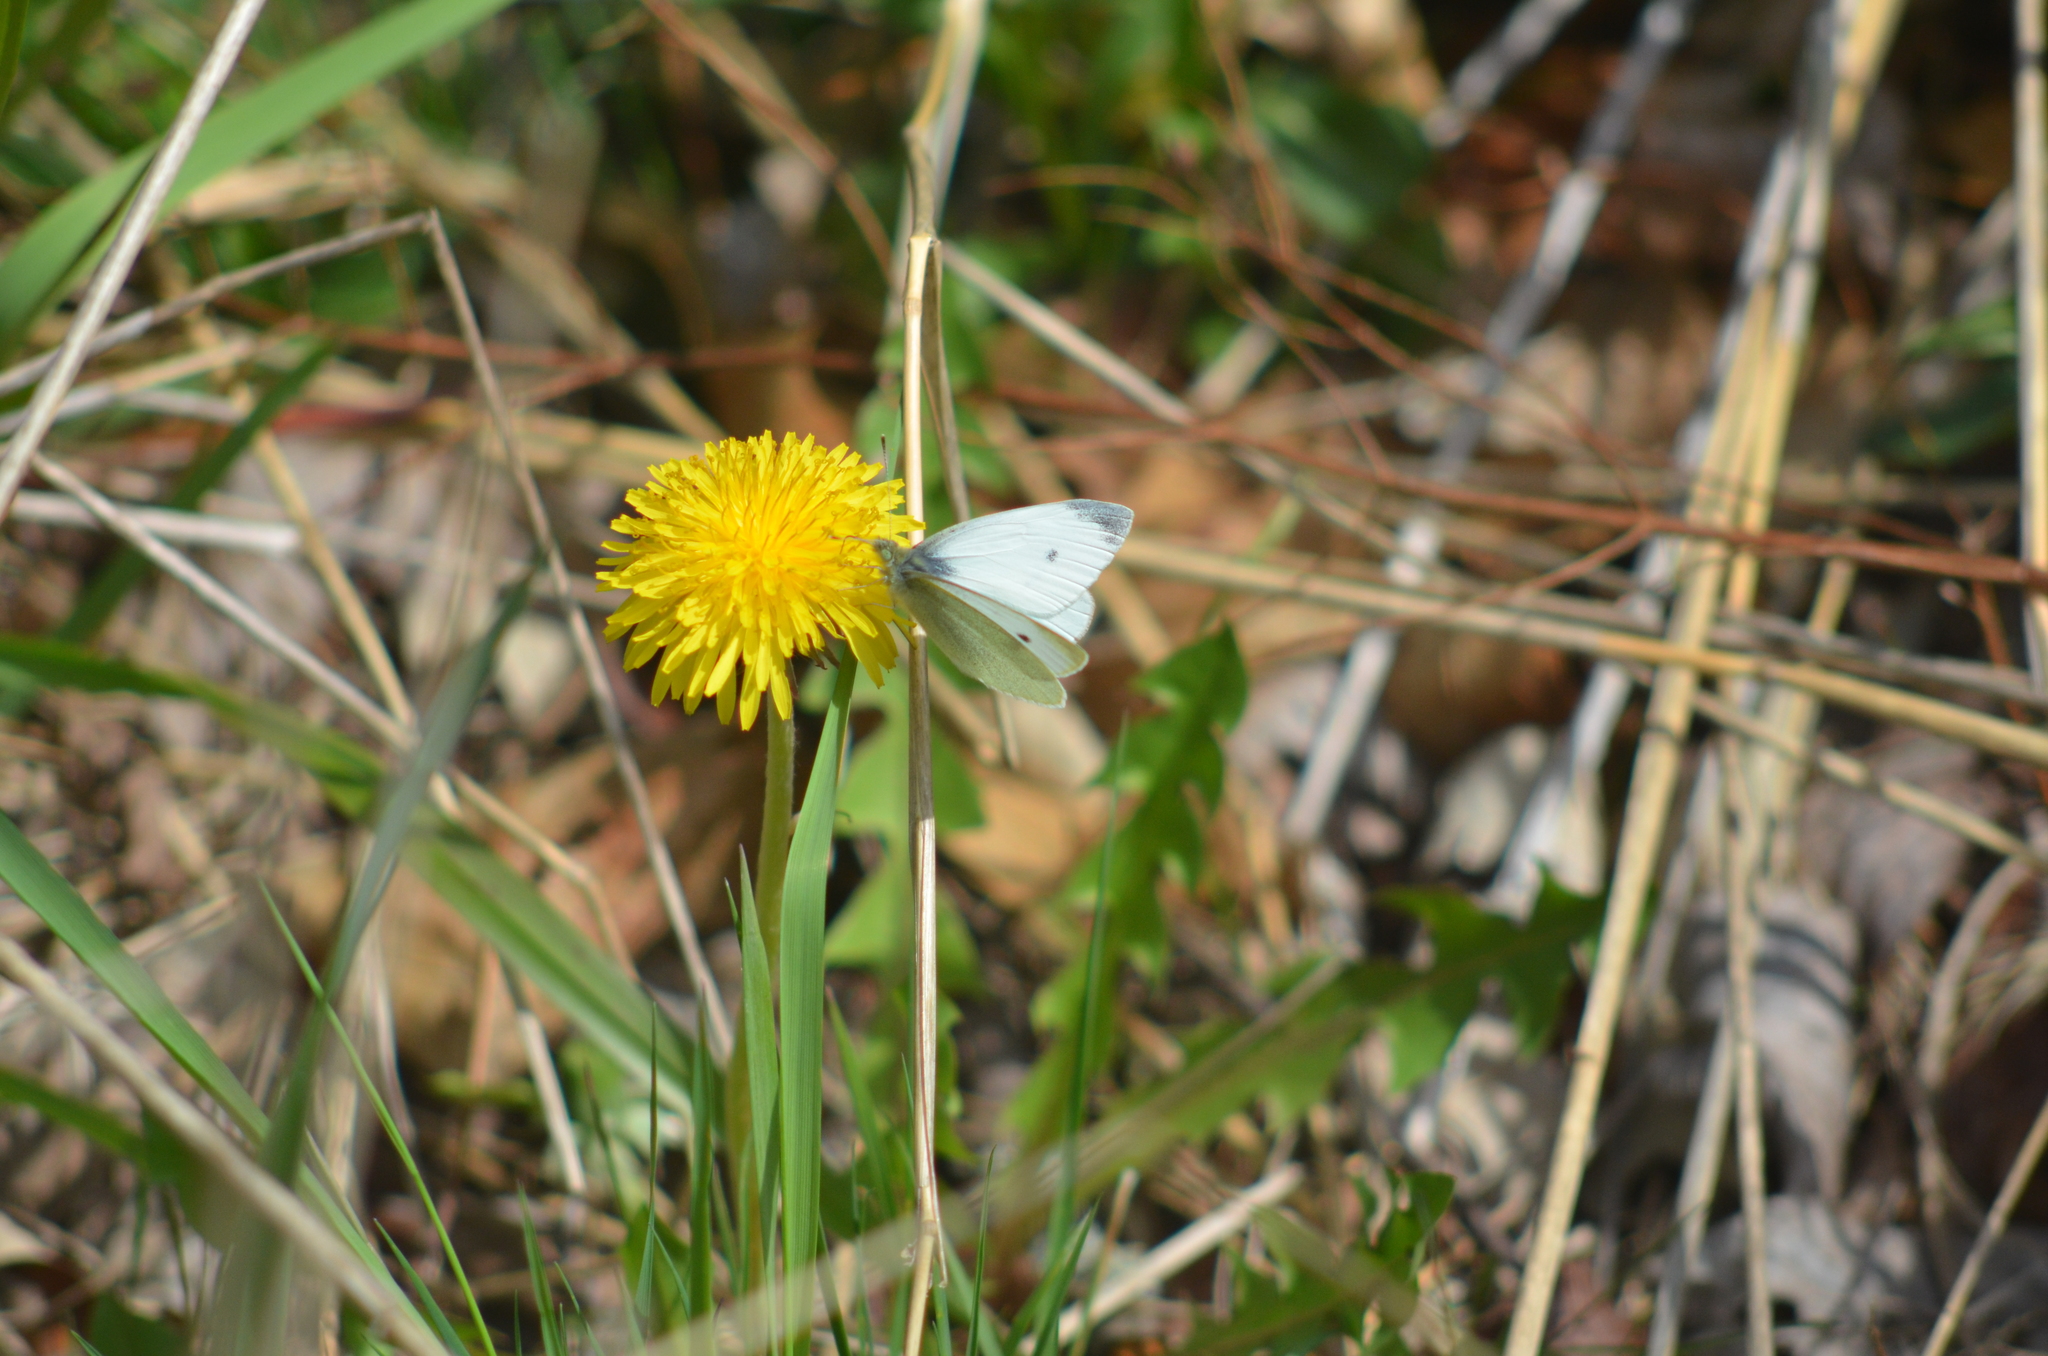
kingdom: Animalia
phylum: Arthropoda
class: Insecta
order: Lepidoptera
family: Pieridae
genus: Pieris
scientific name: Pieris rapae
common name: Small white
